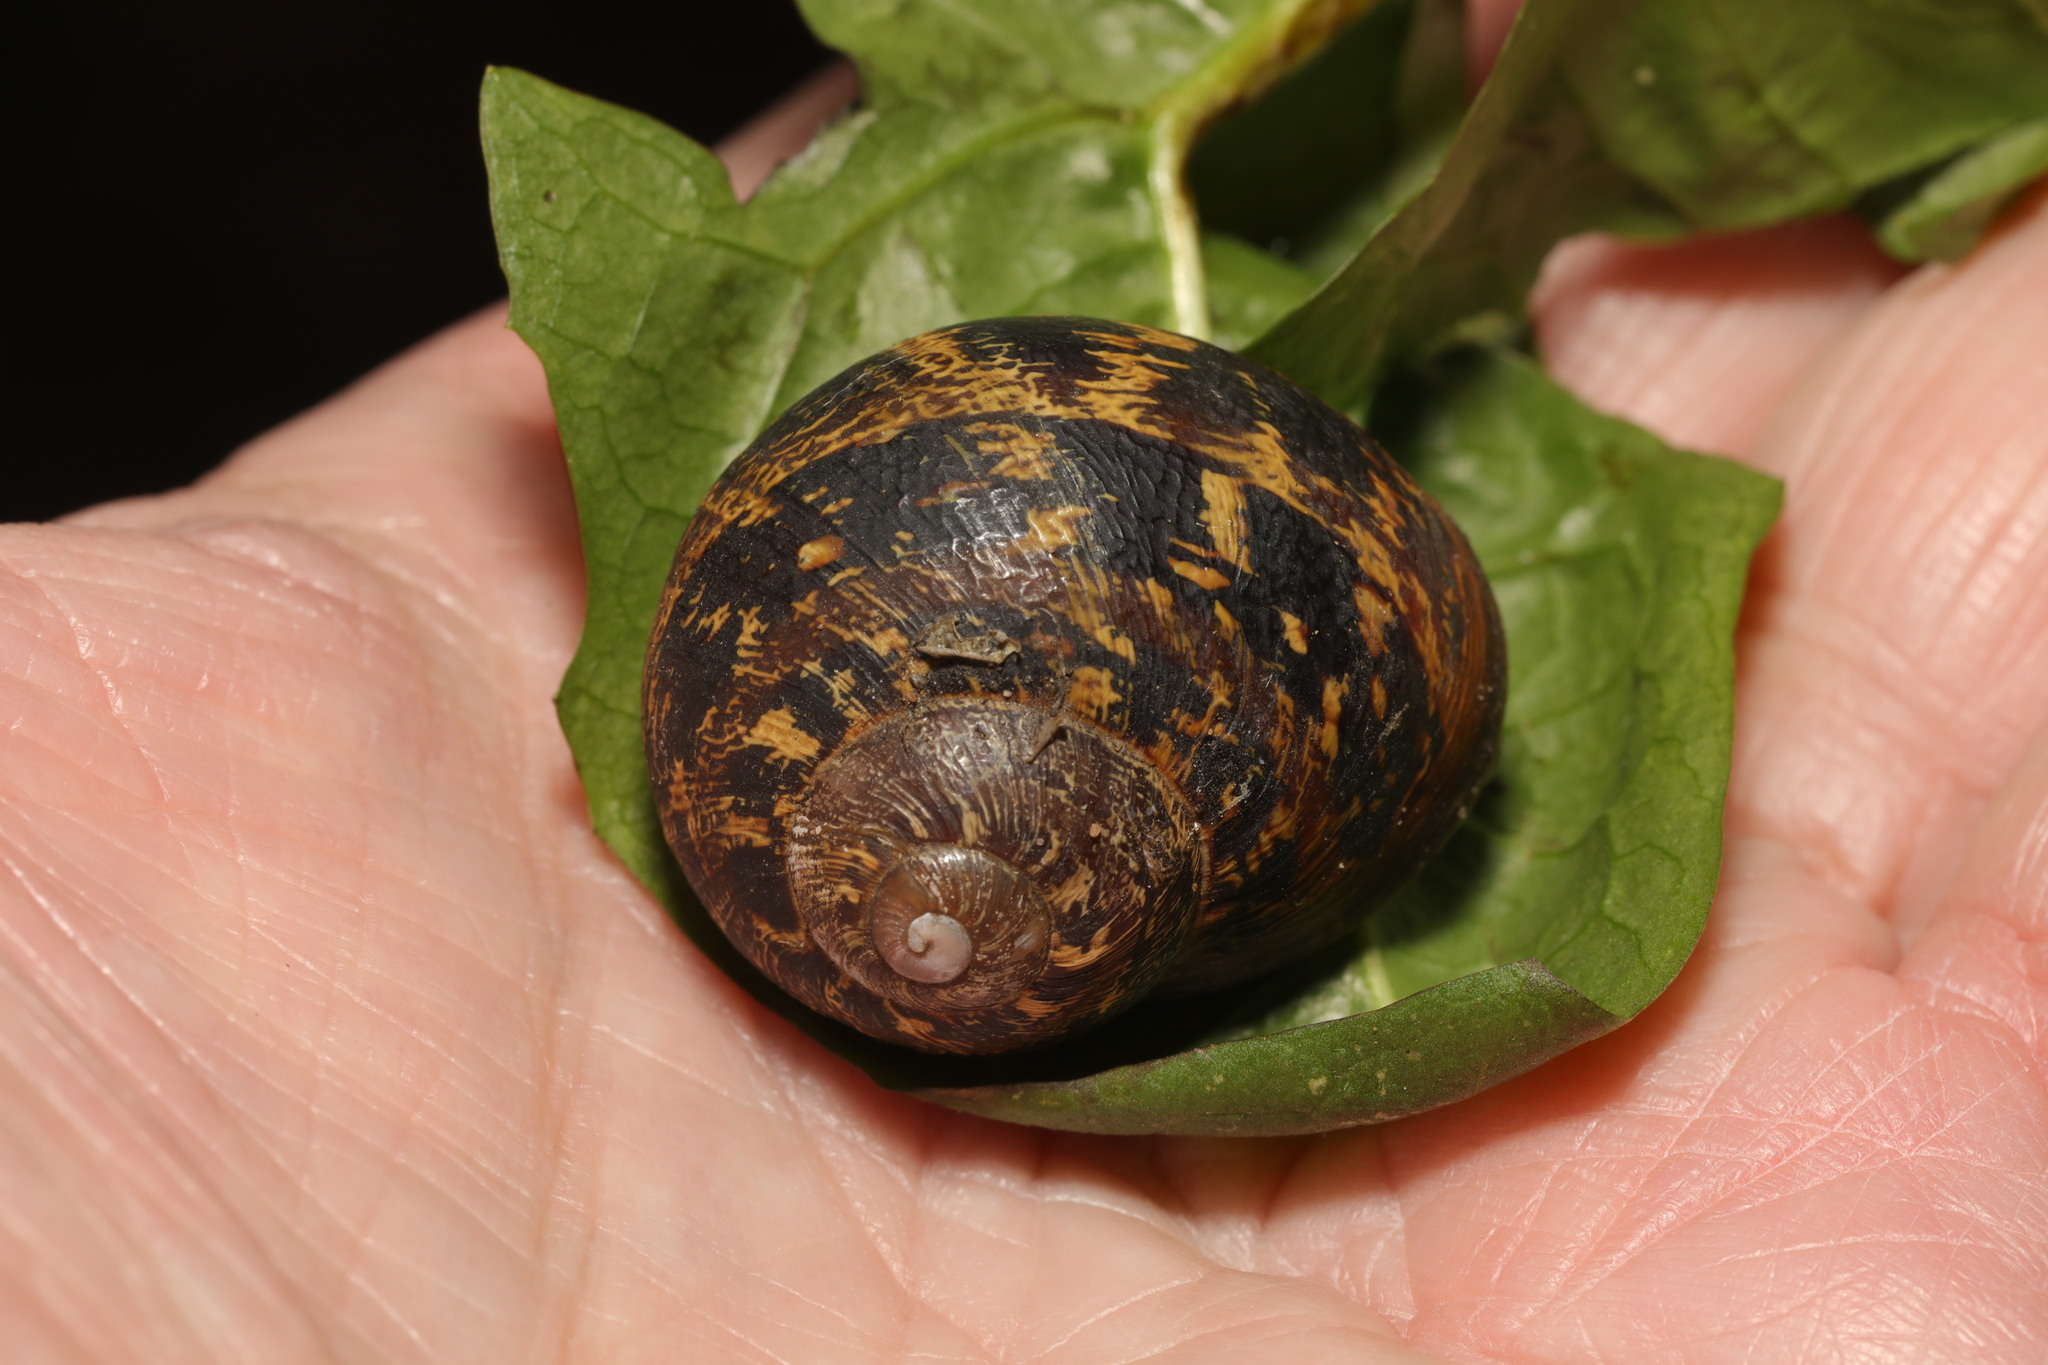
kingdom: Animalia
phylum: Mollusca
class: Gastropoda
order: Stylommatophora
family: Helicidae
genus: Cornu
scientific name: Cornu aspersum
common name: Brown garden snail
